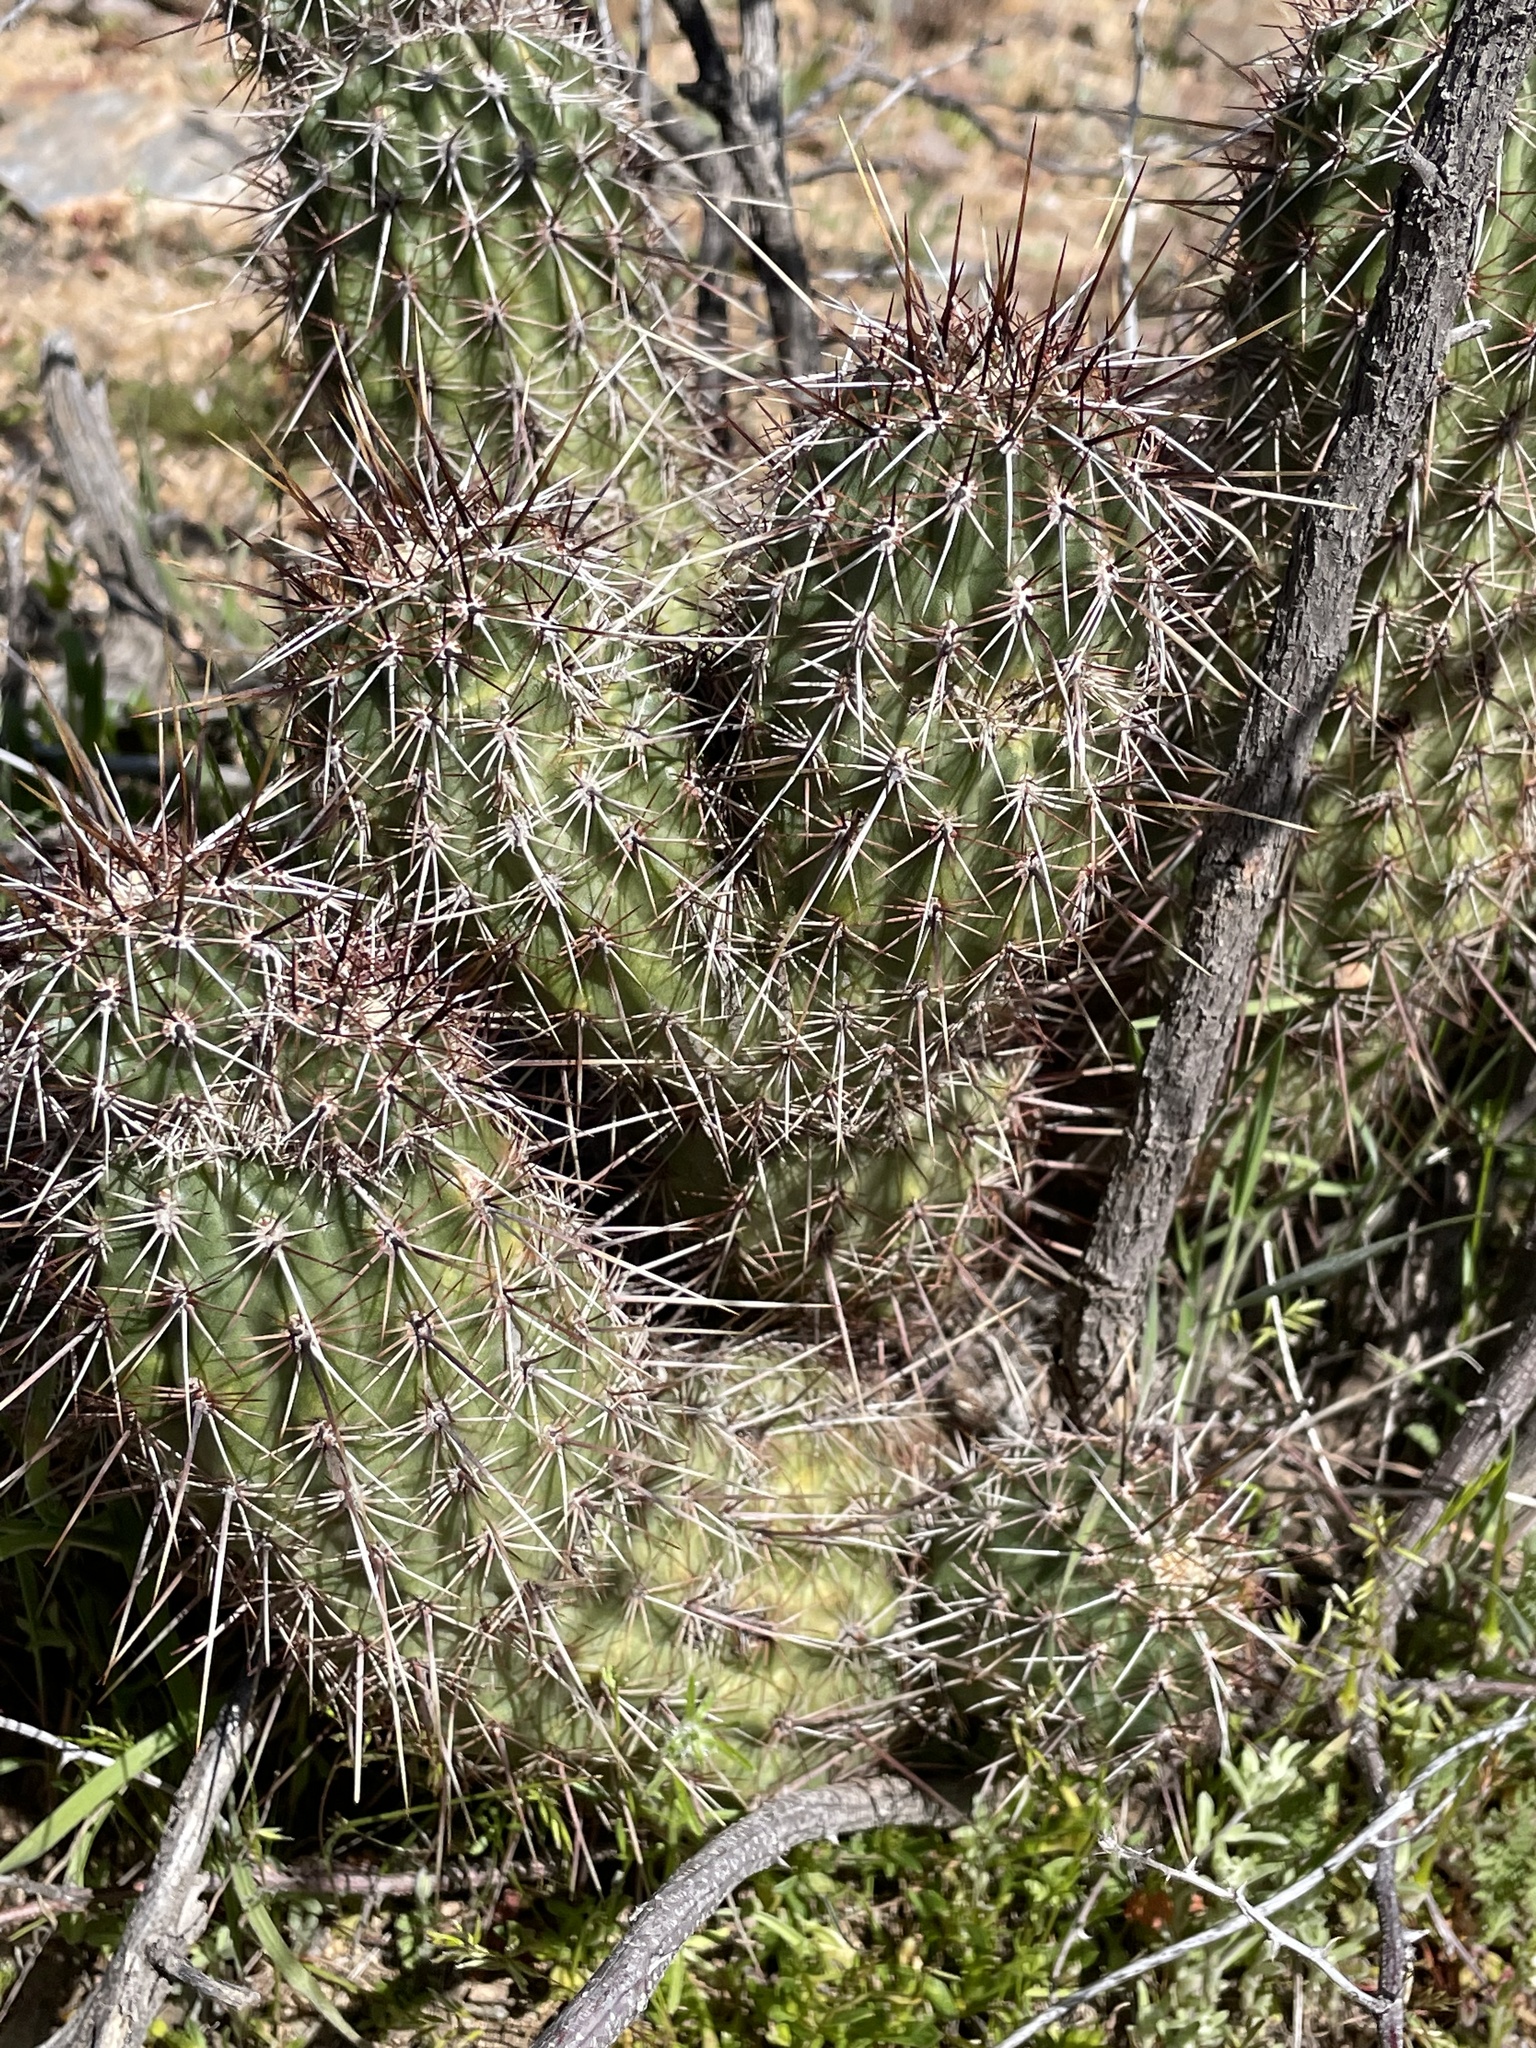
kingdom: Plantae
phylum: Tracheophyta
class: Magnoliopsida
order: Caryophyllales
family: Cactaceae
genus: Echinocereus
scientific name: Echinocereus fasciculatus
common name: Bundle hedgehog
